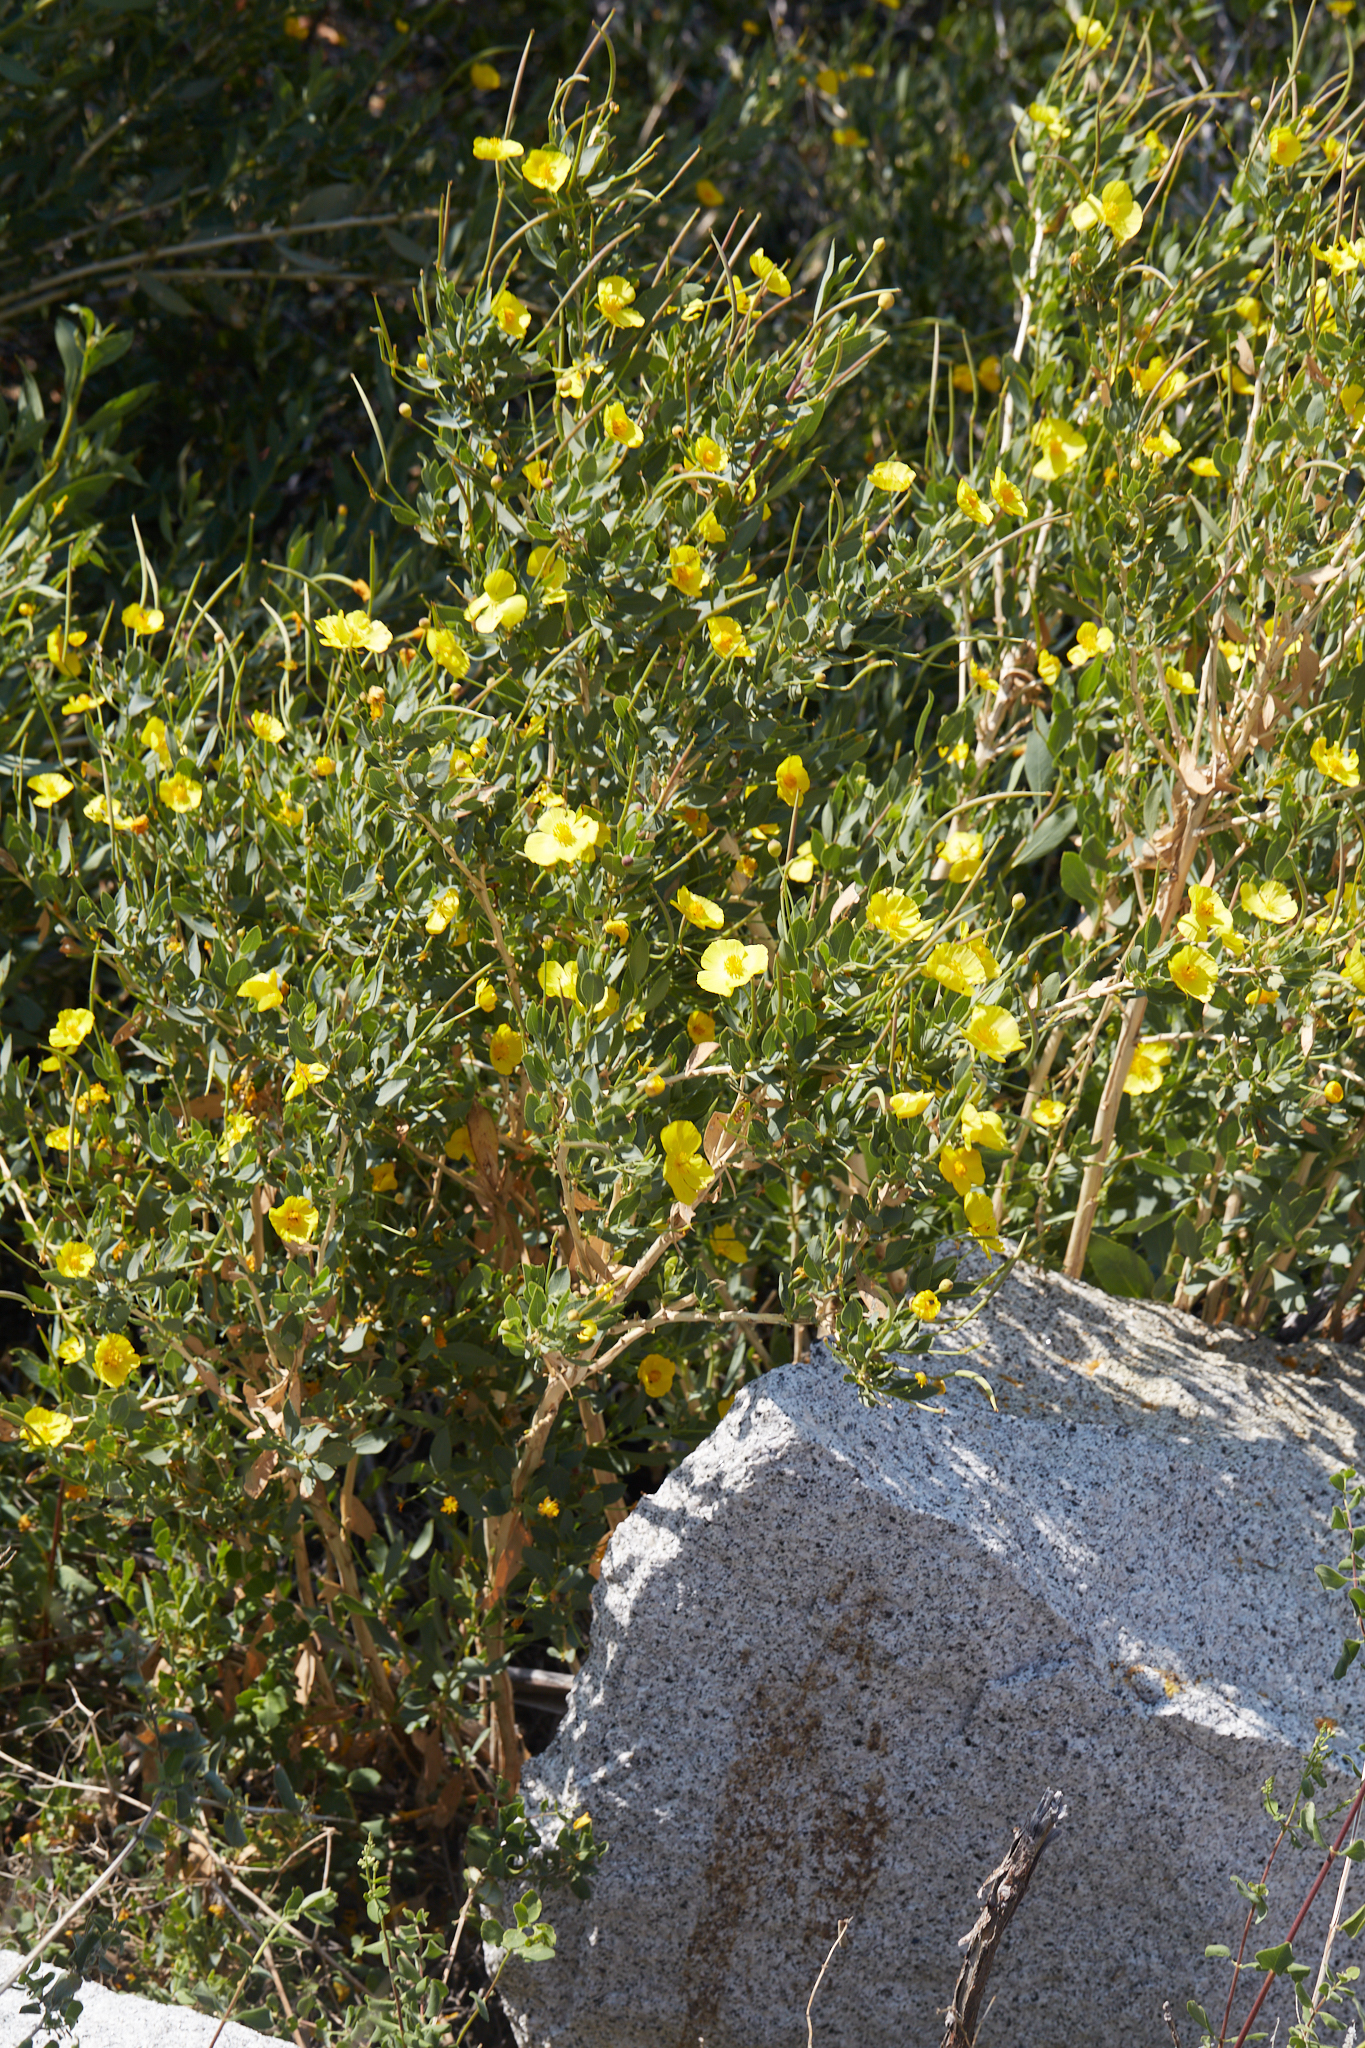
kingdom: Plantae
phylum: Tracheophyta
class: Magnoliopsida
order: Ranunculales
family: Papaveraceae
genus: Dendromecon
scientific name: Dendromecon rigida
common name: Tree poppy
